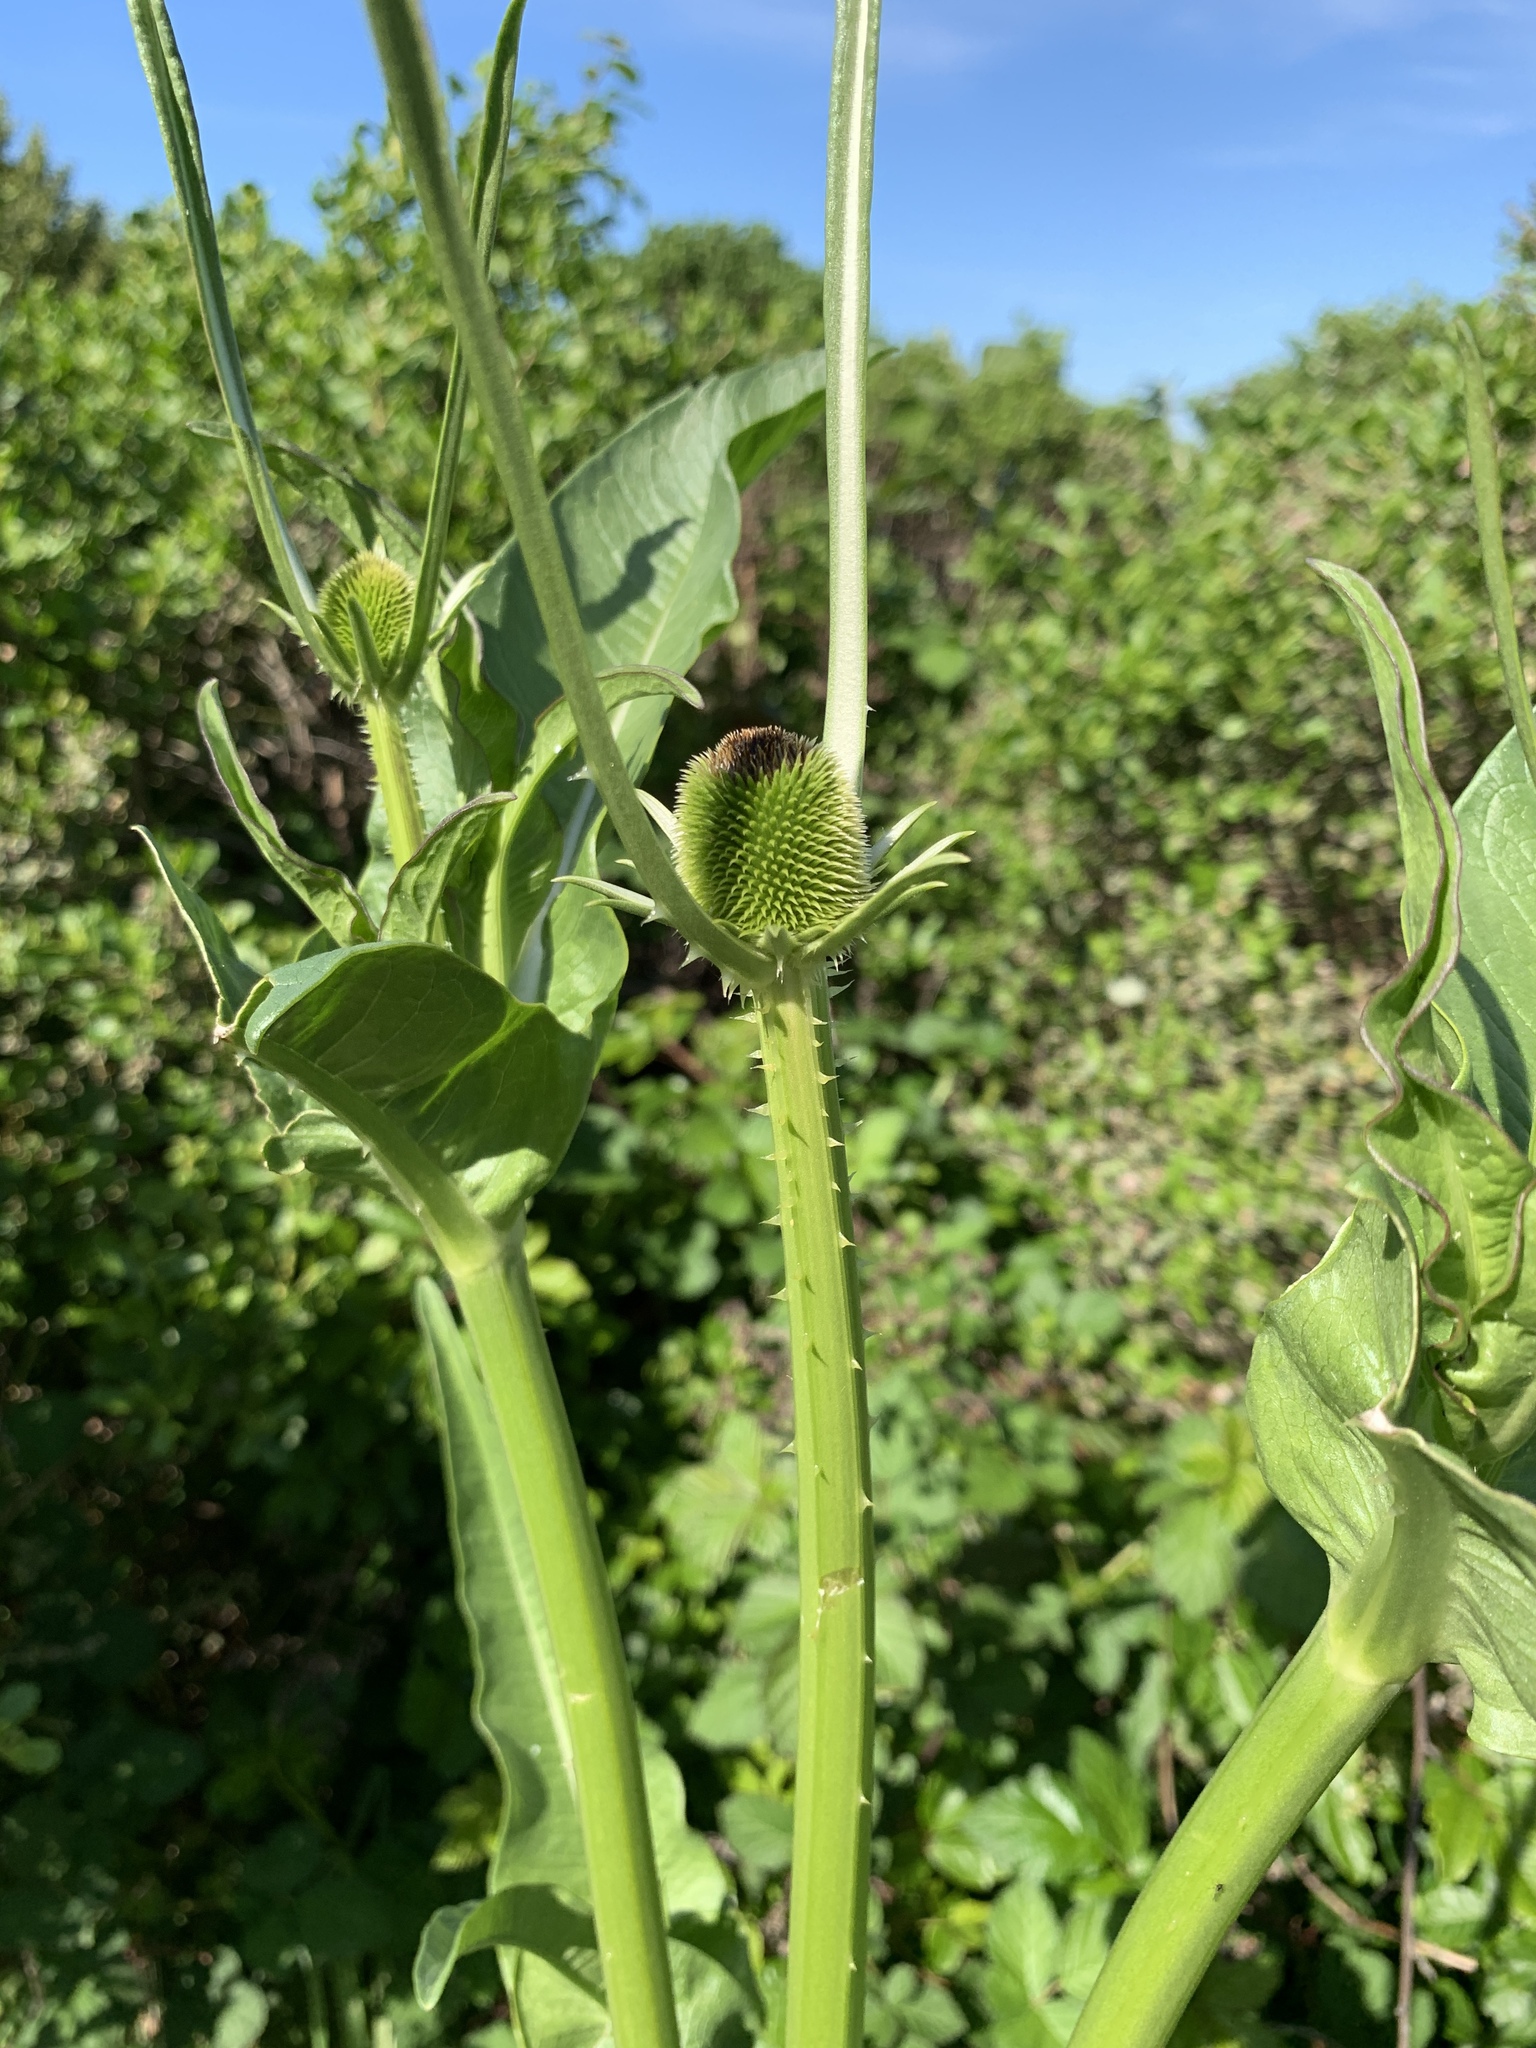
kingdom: Plantae
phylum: Tracheophyta
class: Magnoliopsida
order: Dipsacales
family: Caprifoliaceae
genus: Dipsacus
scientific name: Dipsacus sativus
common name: Fuller's teasel
